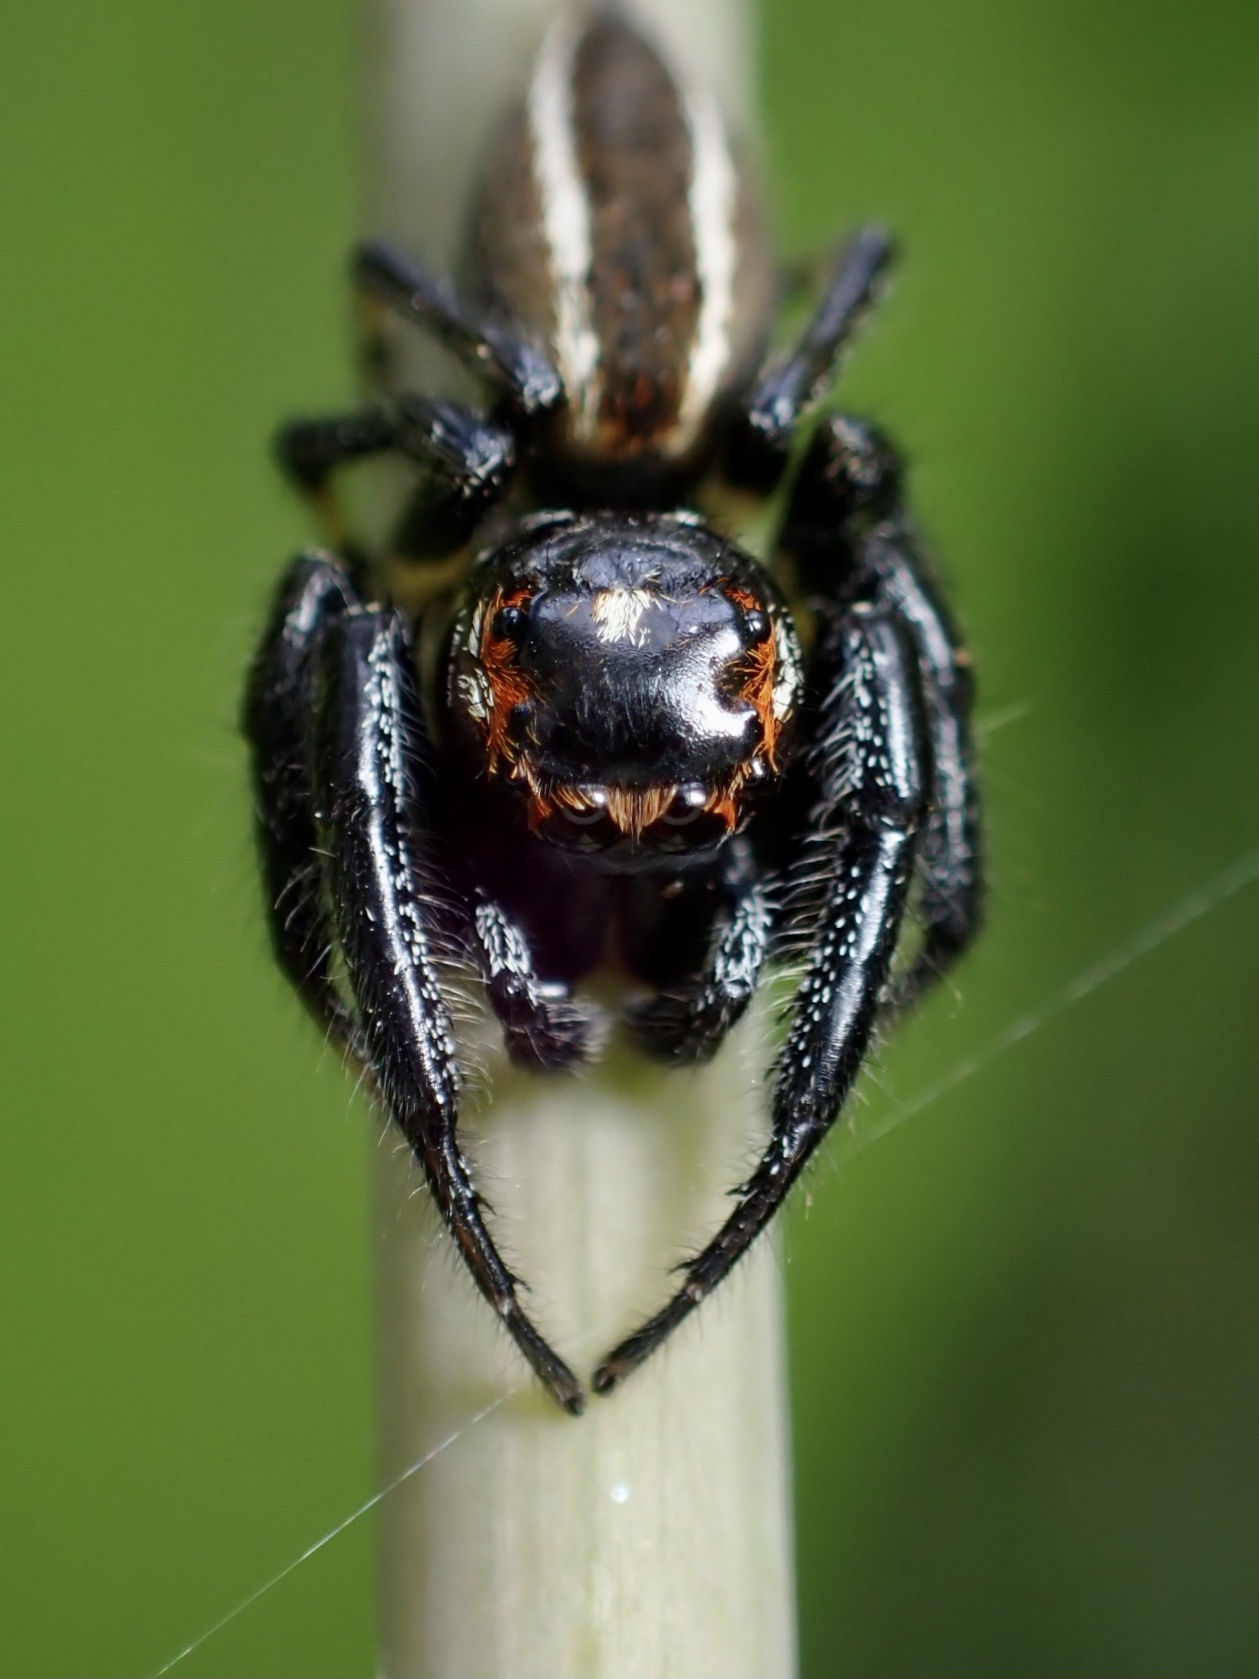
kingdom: Animalia
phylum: Arthropoda
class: Arachnida
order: Araneae
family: Salticidae
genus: Colonus
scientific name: Colonus sylvanus
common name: Jumping spiders
